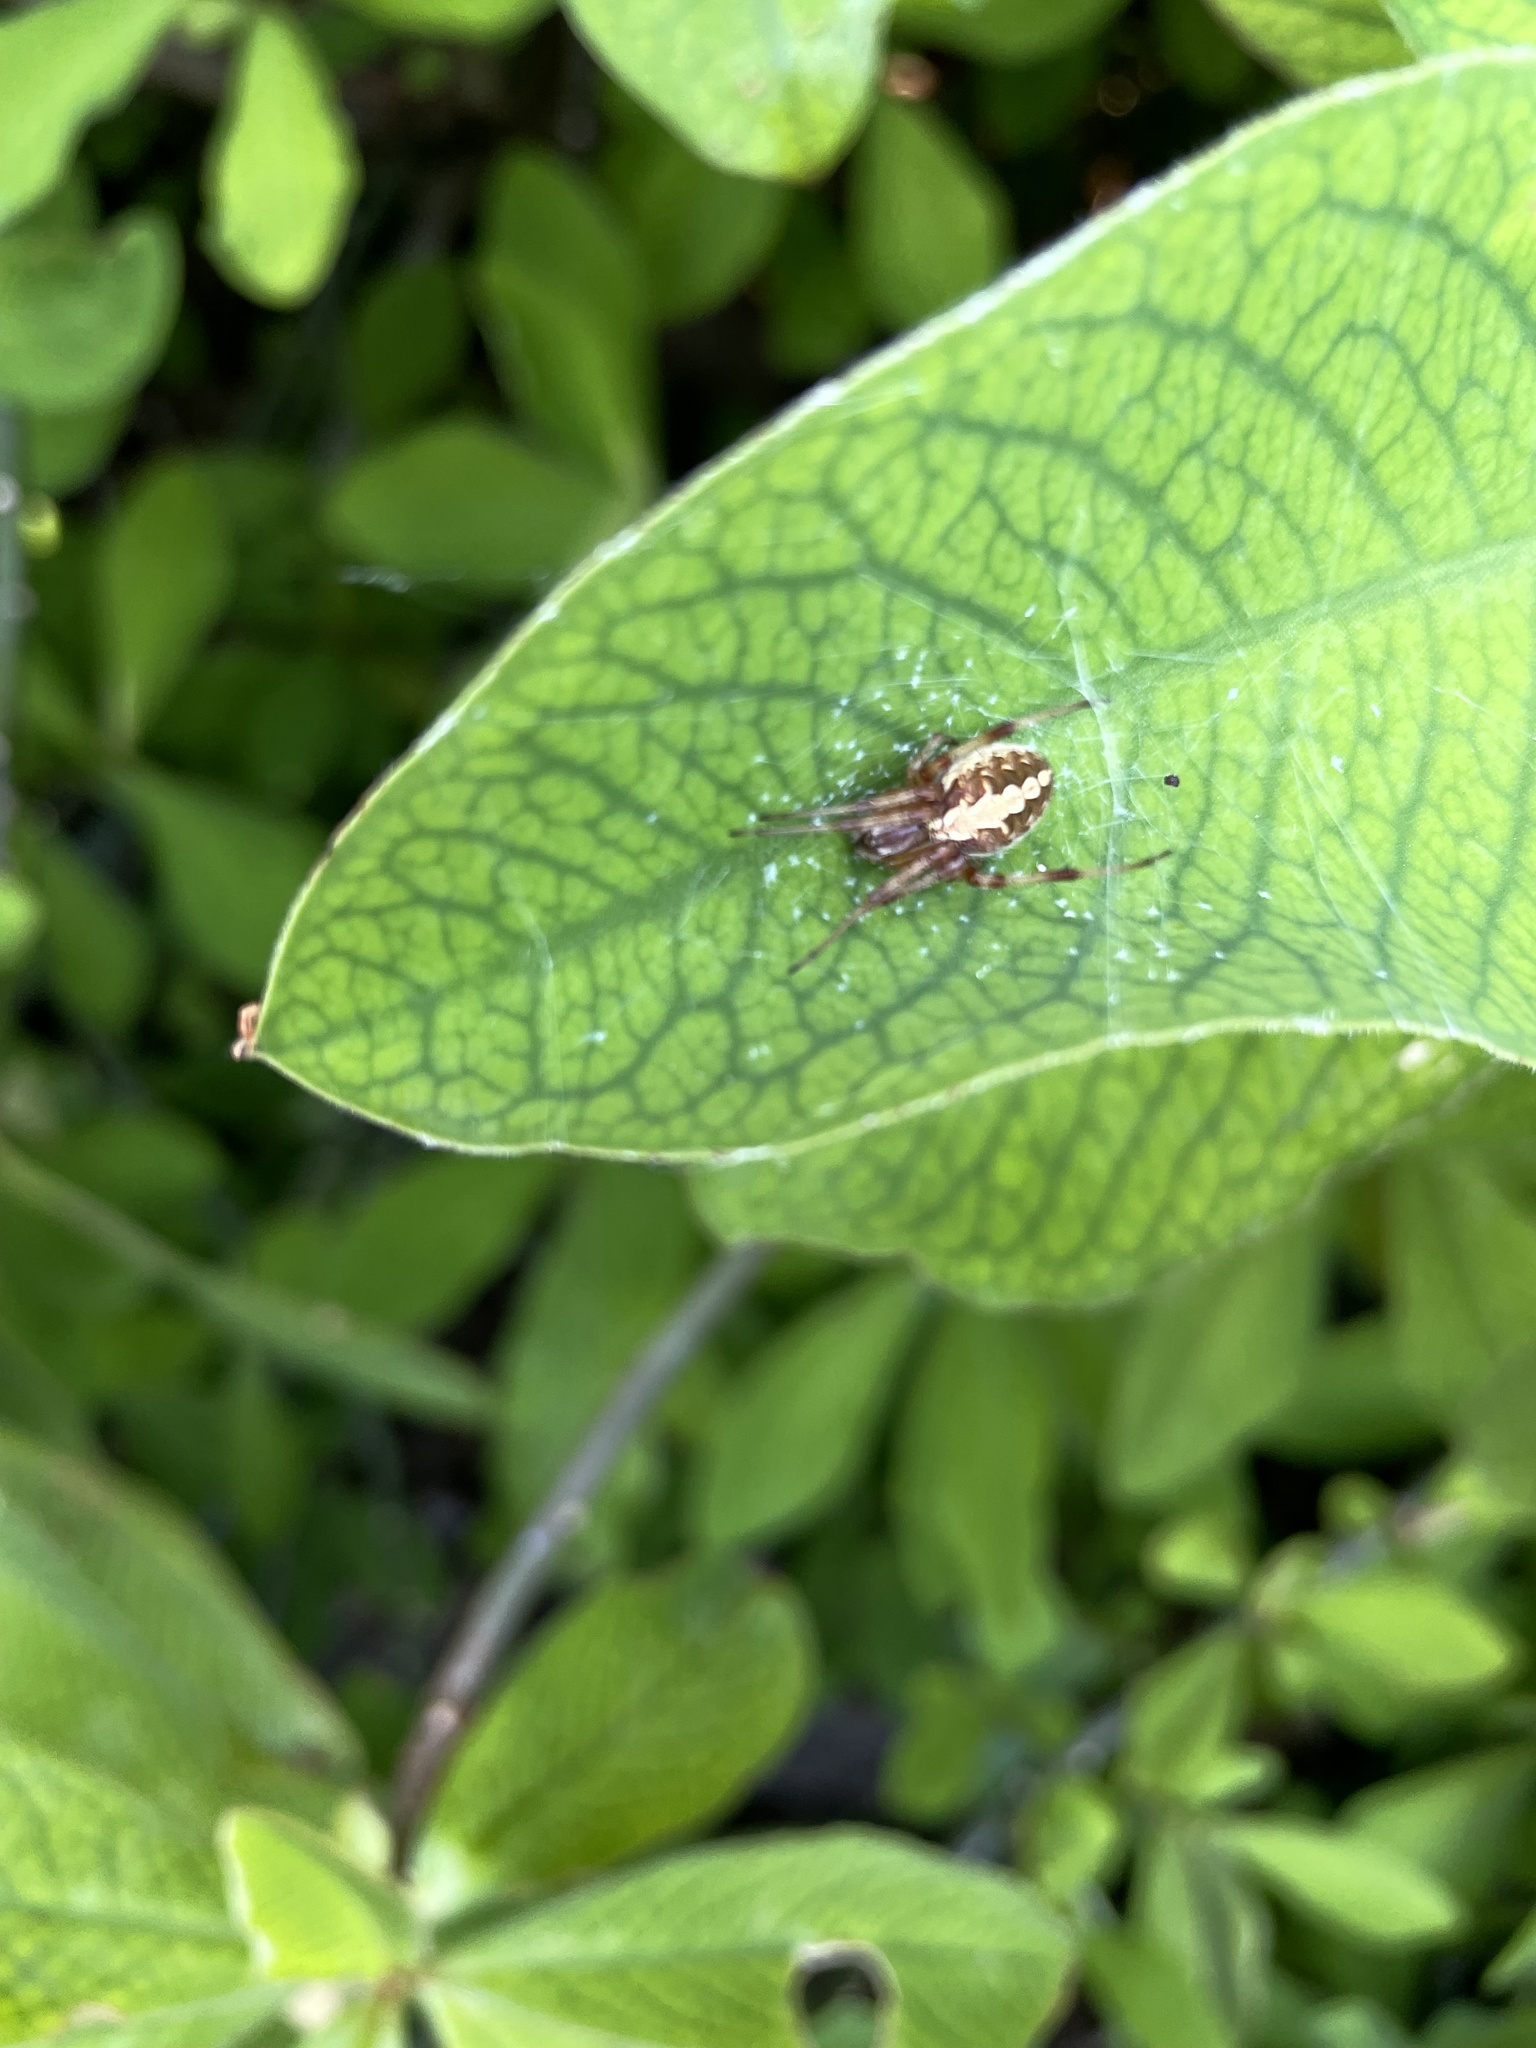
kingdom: Animalia
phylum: Arthropoda
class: Arachnida
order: Araneae
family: Araneidae
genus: Neoscona
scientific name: Neoscona theisi
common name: Spider
